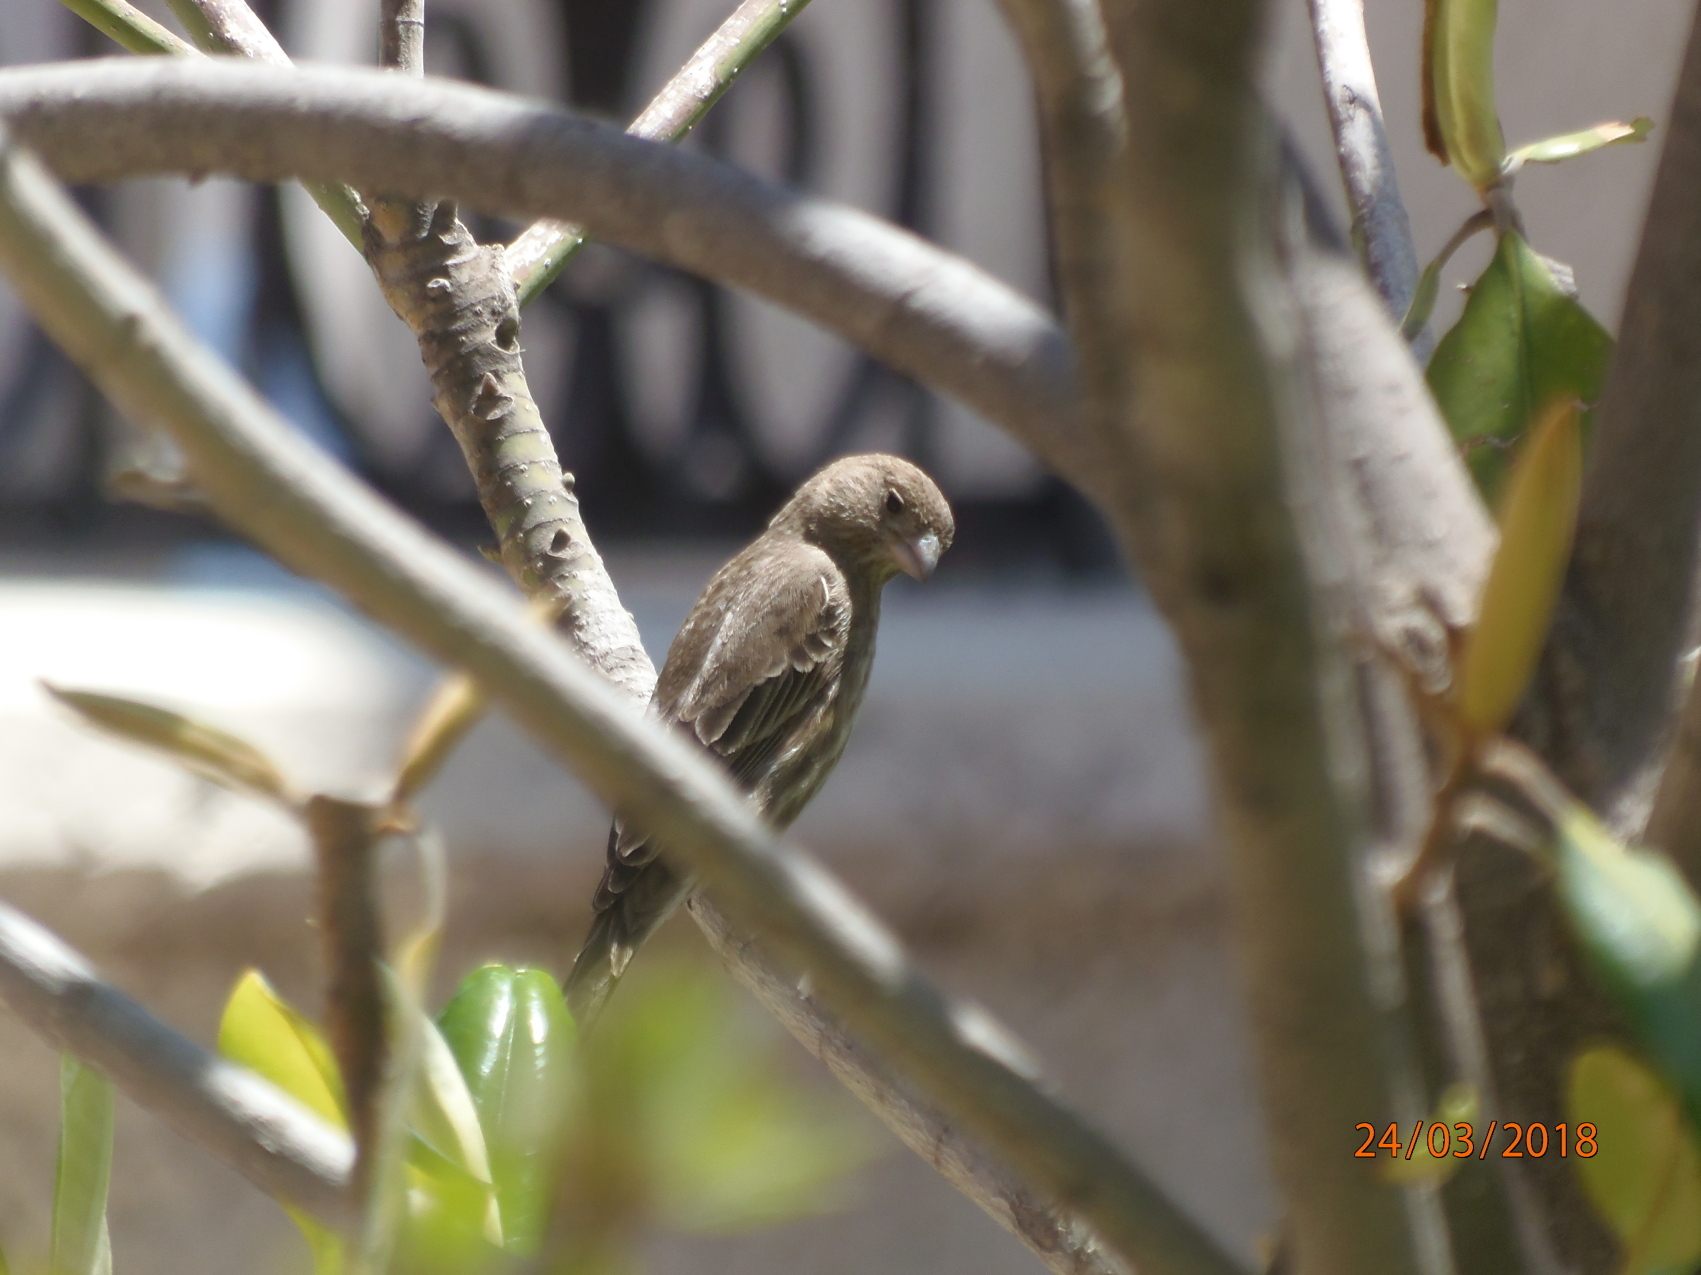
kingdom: Animalia
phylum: Chordata
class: Aves
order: Passeriformes
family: Fringillidae
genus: Haemorhous
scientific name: Haemorhous mexicanus
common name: House finch
